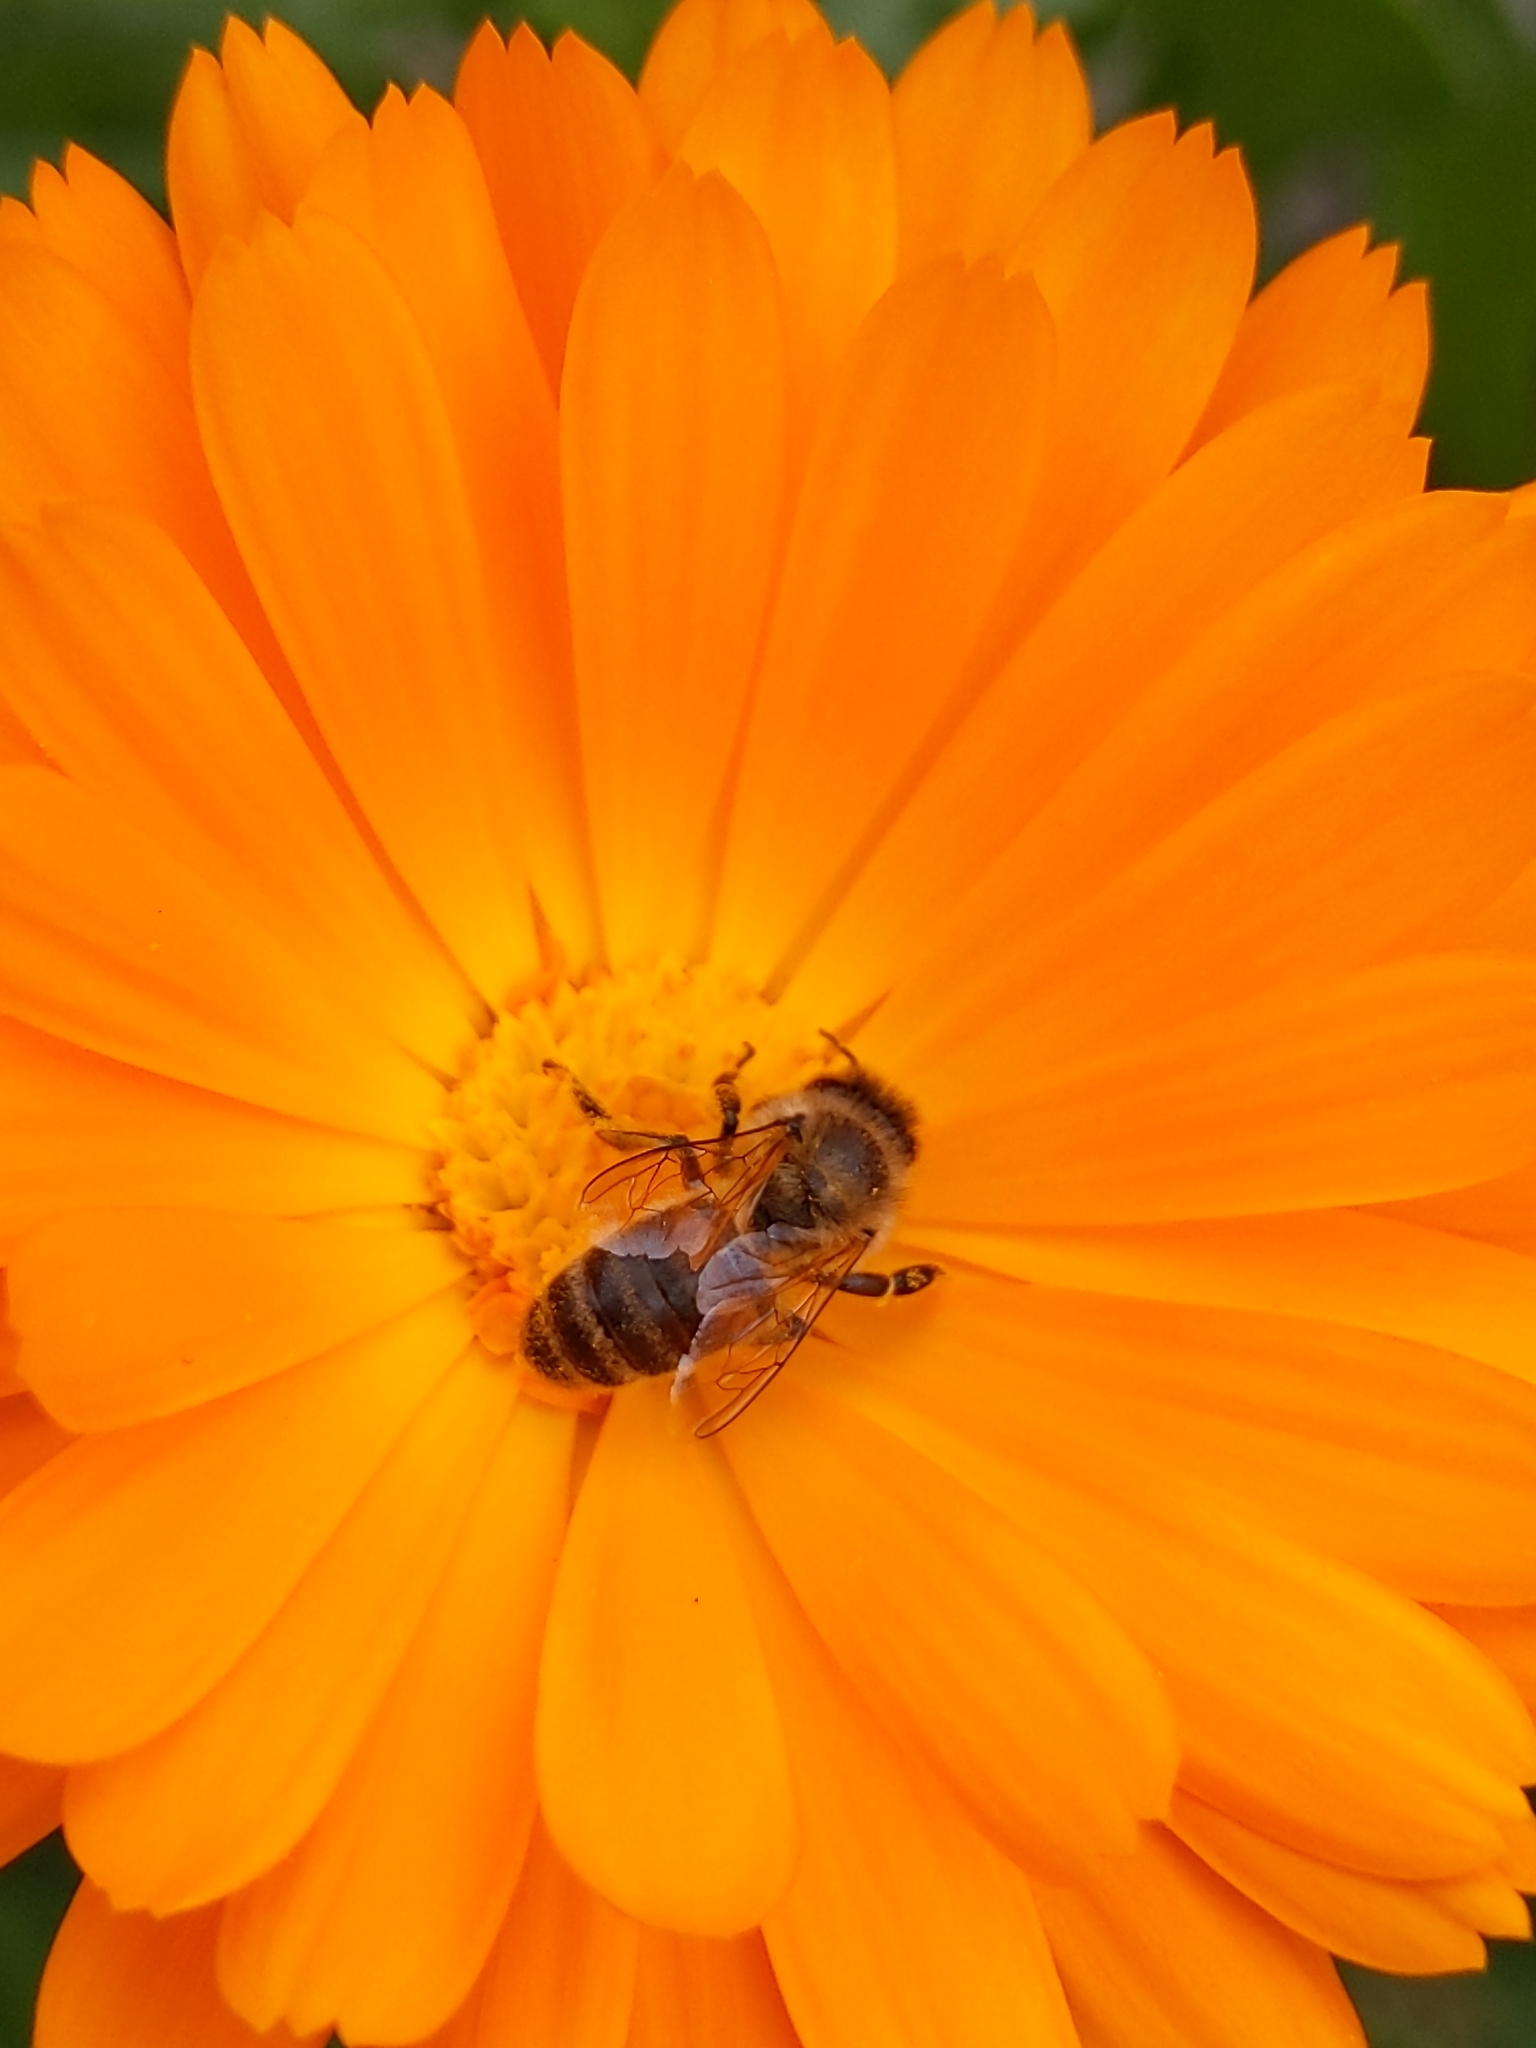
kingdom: Animalia
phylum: Arthropoda
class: Insecta
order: Hymenoptera
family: Apidae
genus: Apis
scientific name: Apis mellifera
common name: Honey bee
